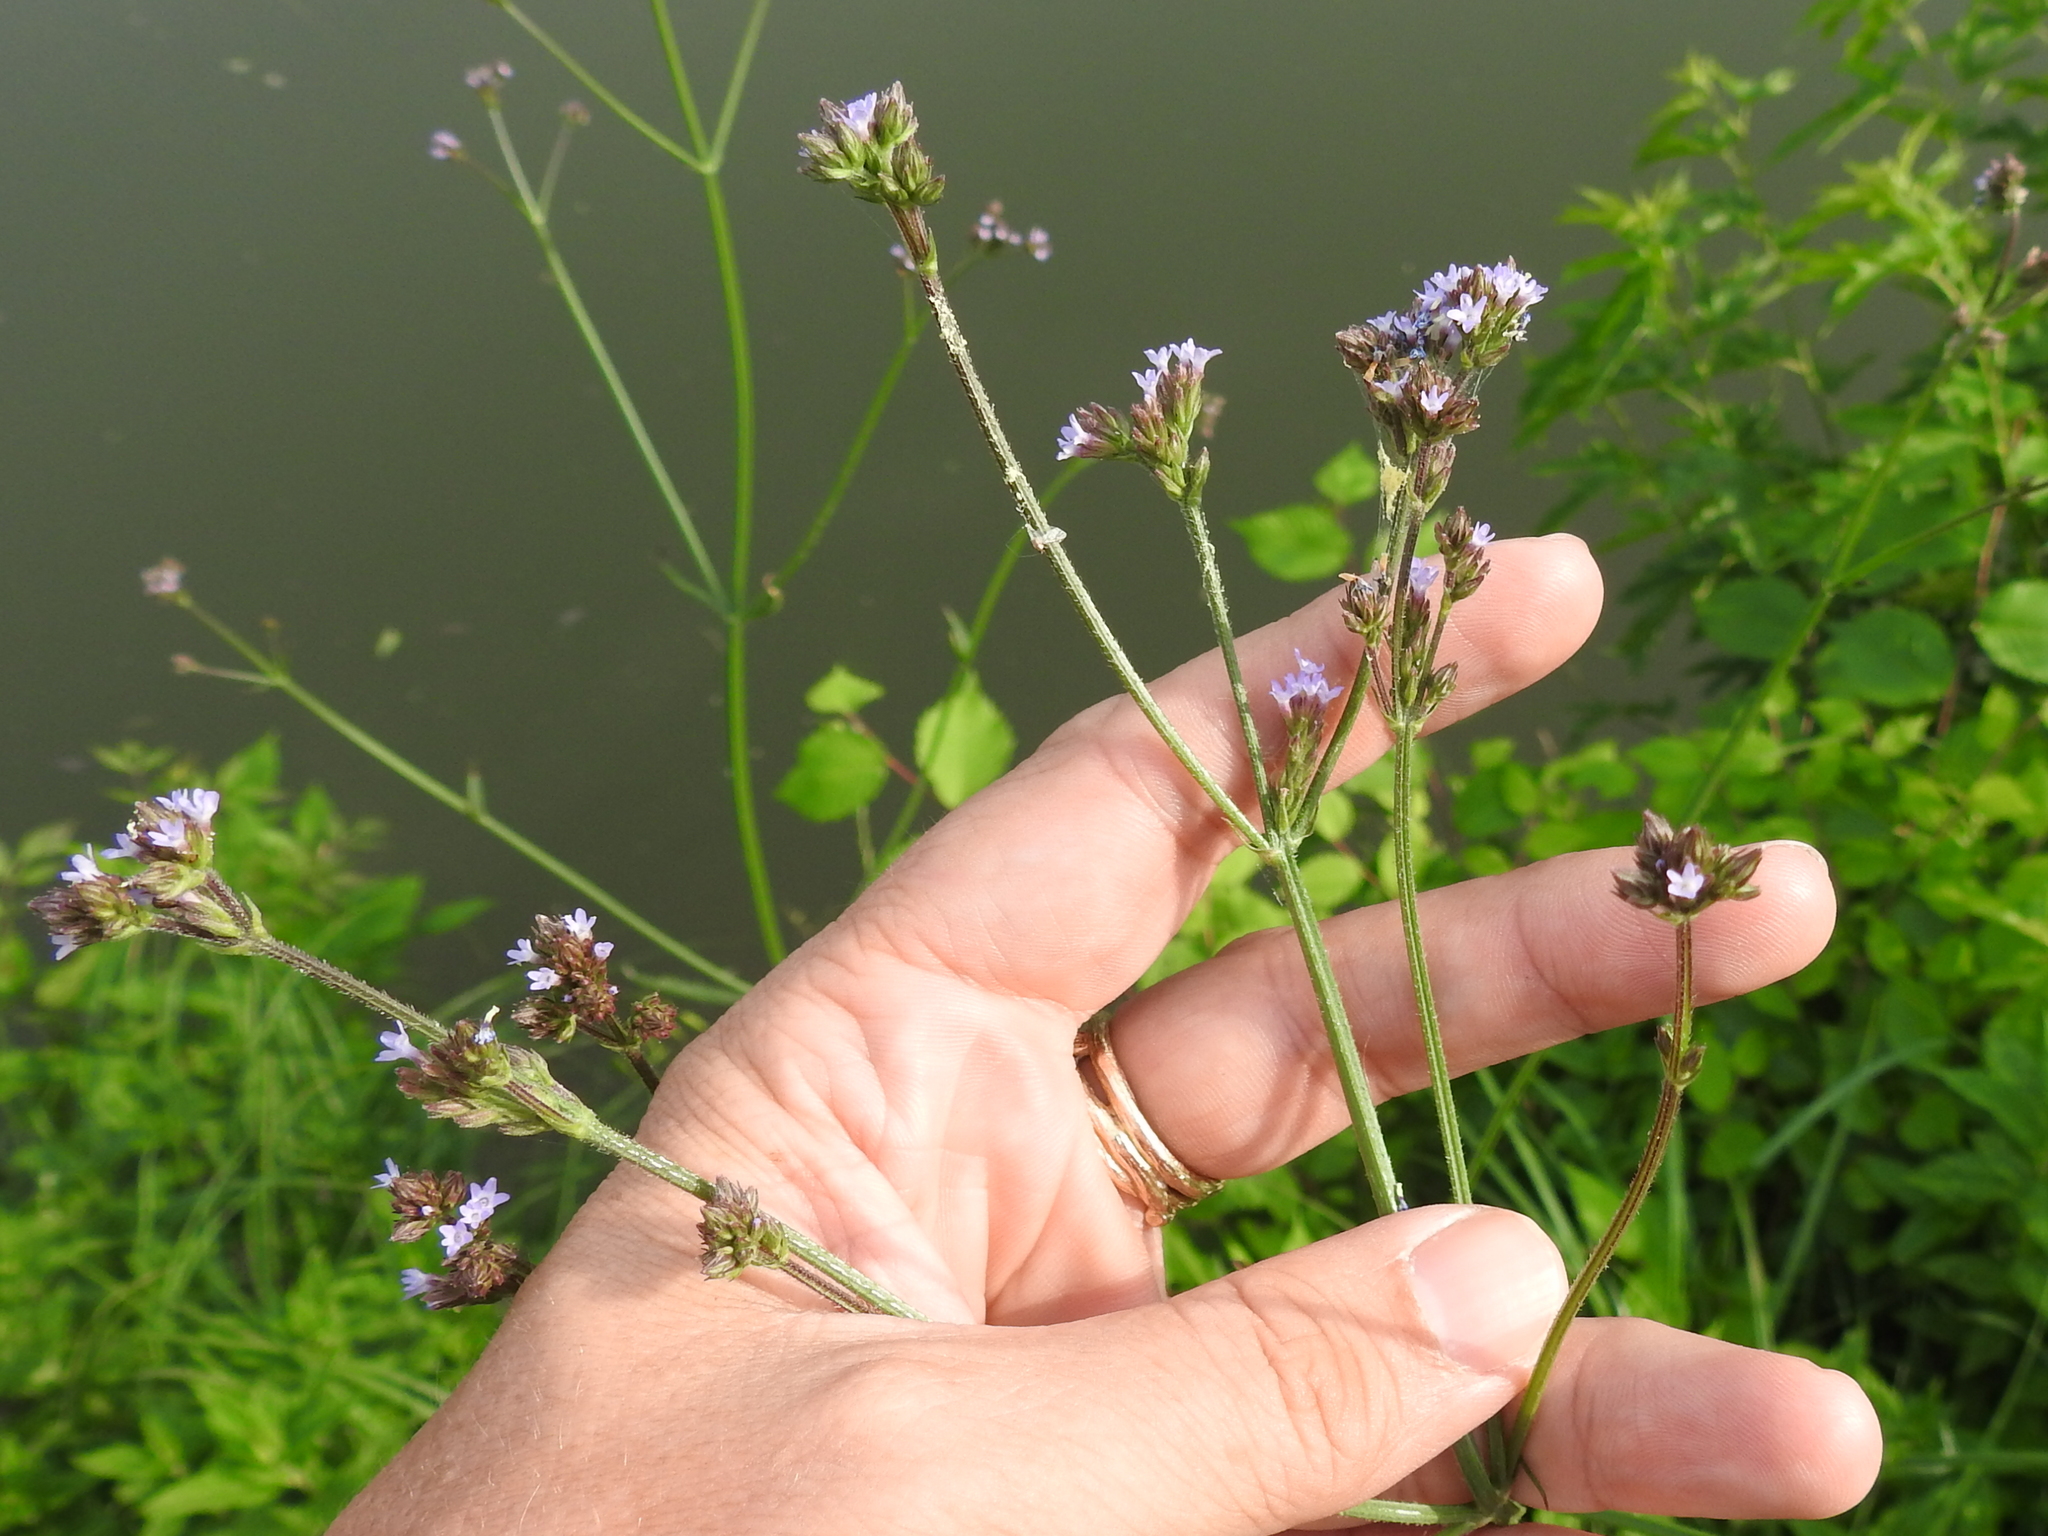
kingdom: Plantae
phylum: Tracheophyta
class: Magnoliopsida
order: Lamiales
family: Verbenaceae
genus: Verbena
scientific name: Verbena brasiliensis
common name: Brazilian vervain
